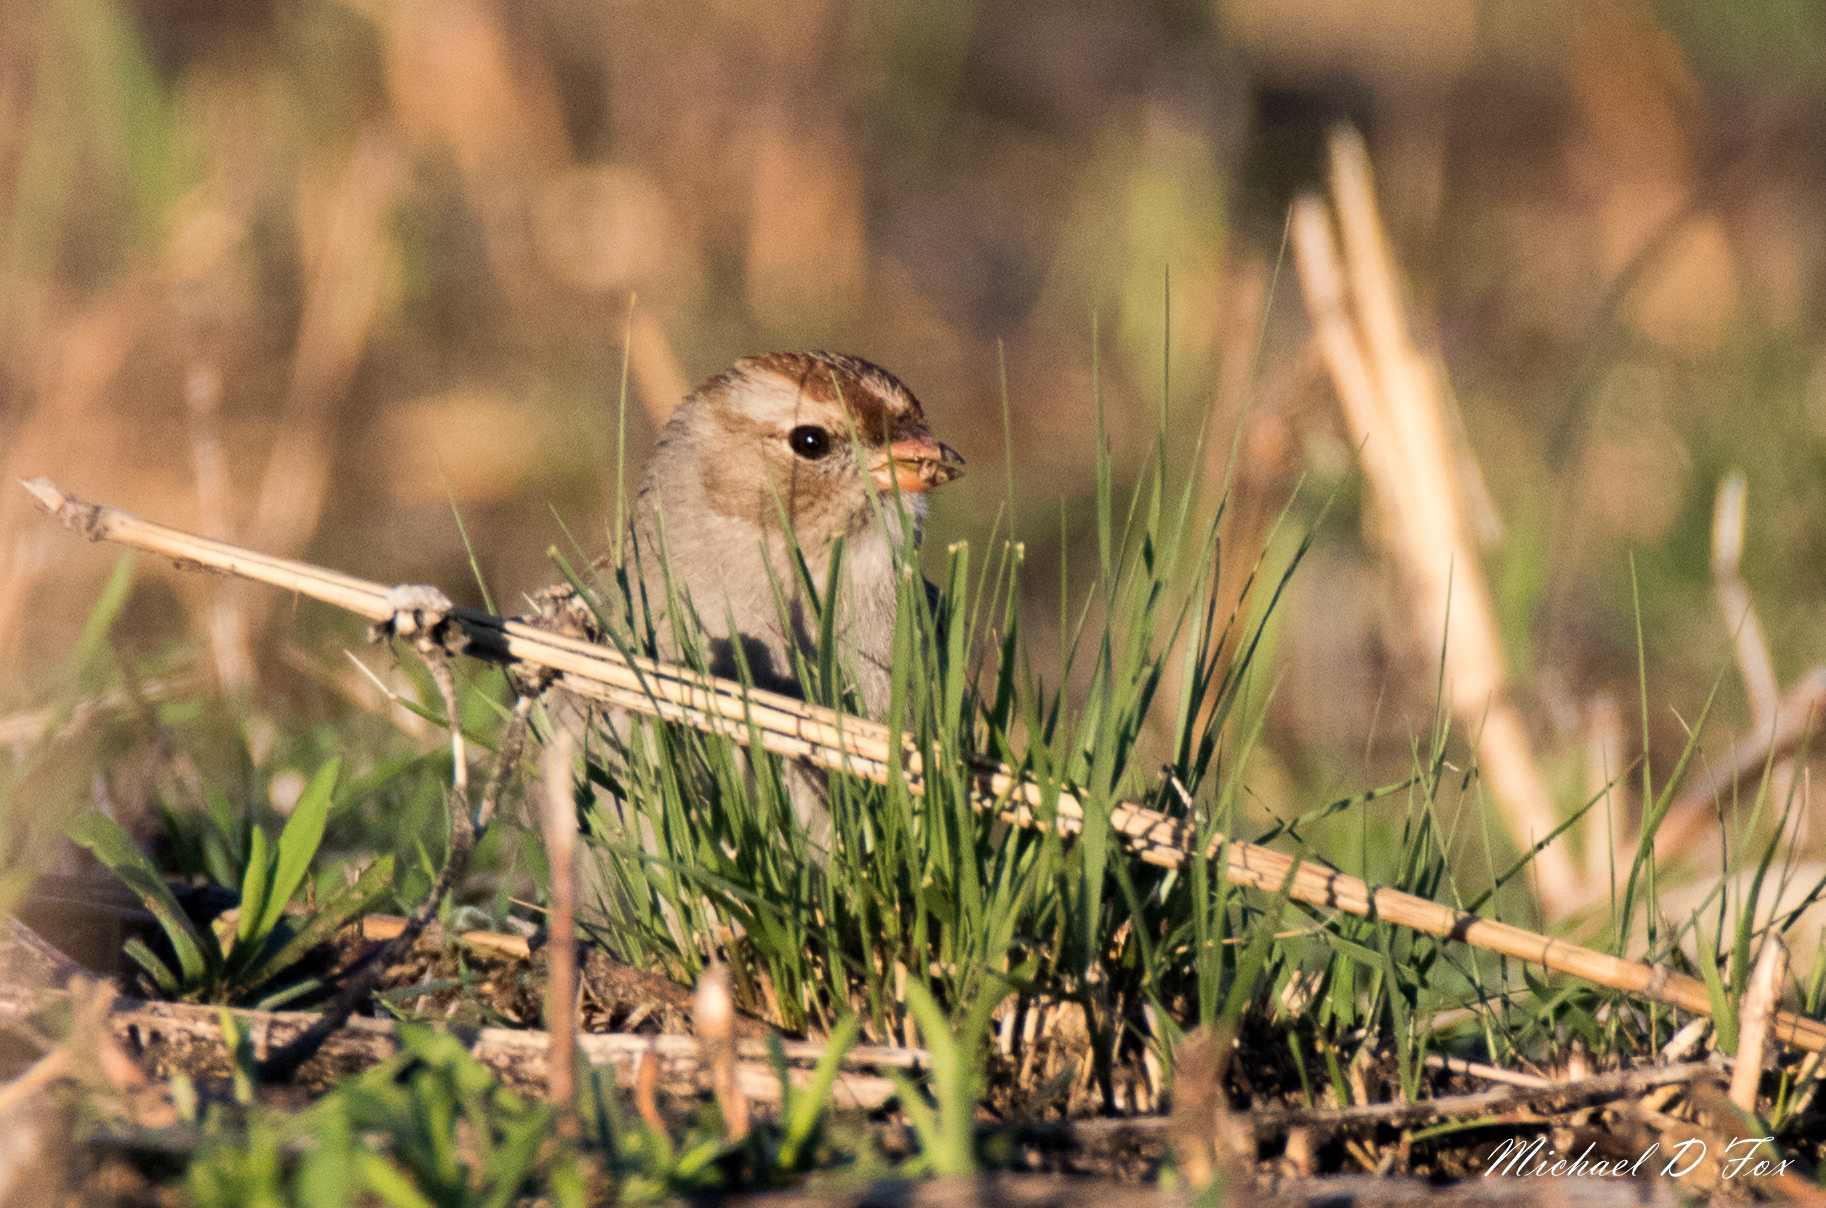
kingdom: Animalia
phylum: Chordata
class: Aves
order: Passeriformes
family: Passerellidae
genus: Zonotrichia
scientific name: Zonotrichia leucophrys
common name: White-crowned sparrow
